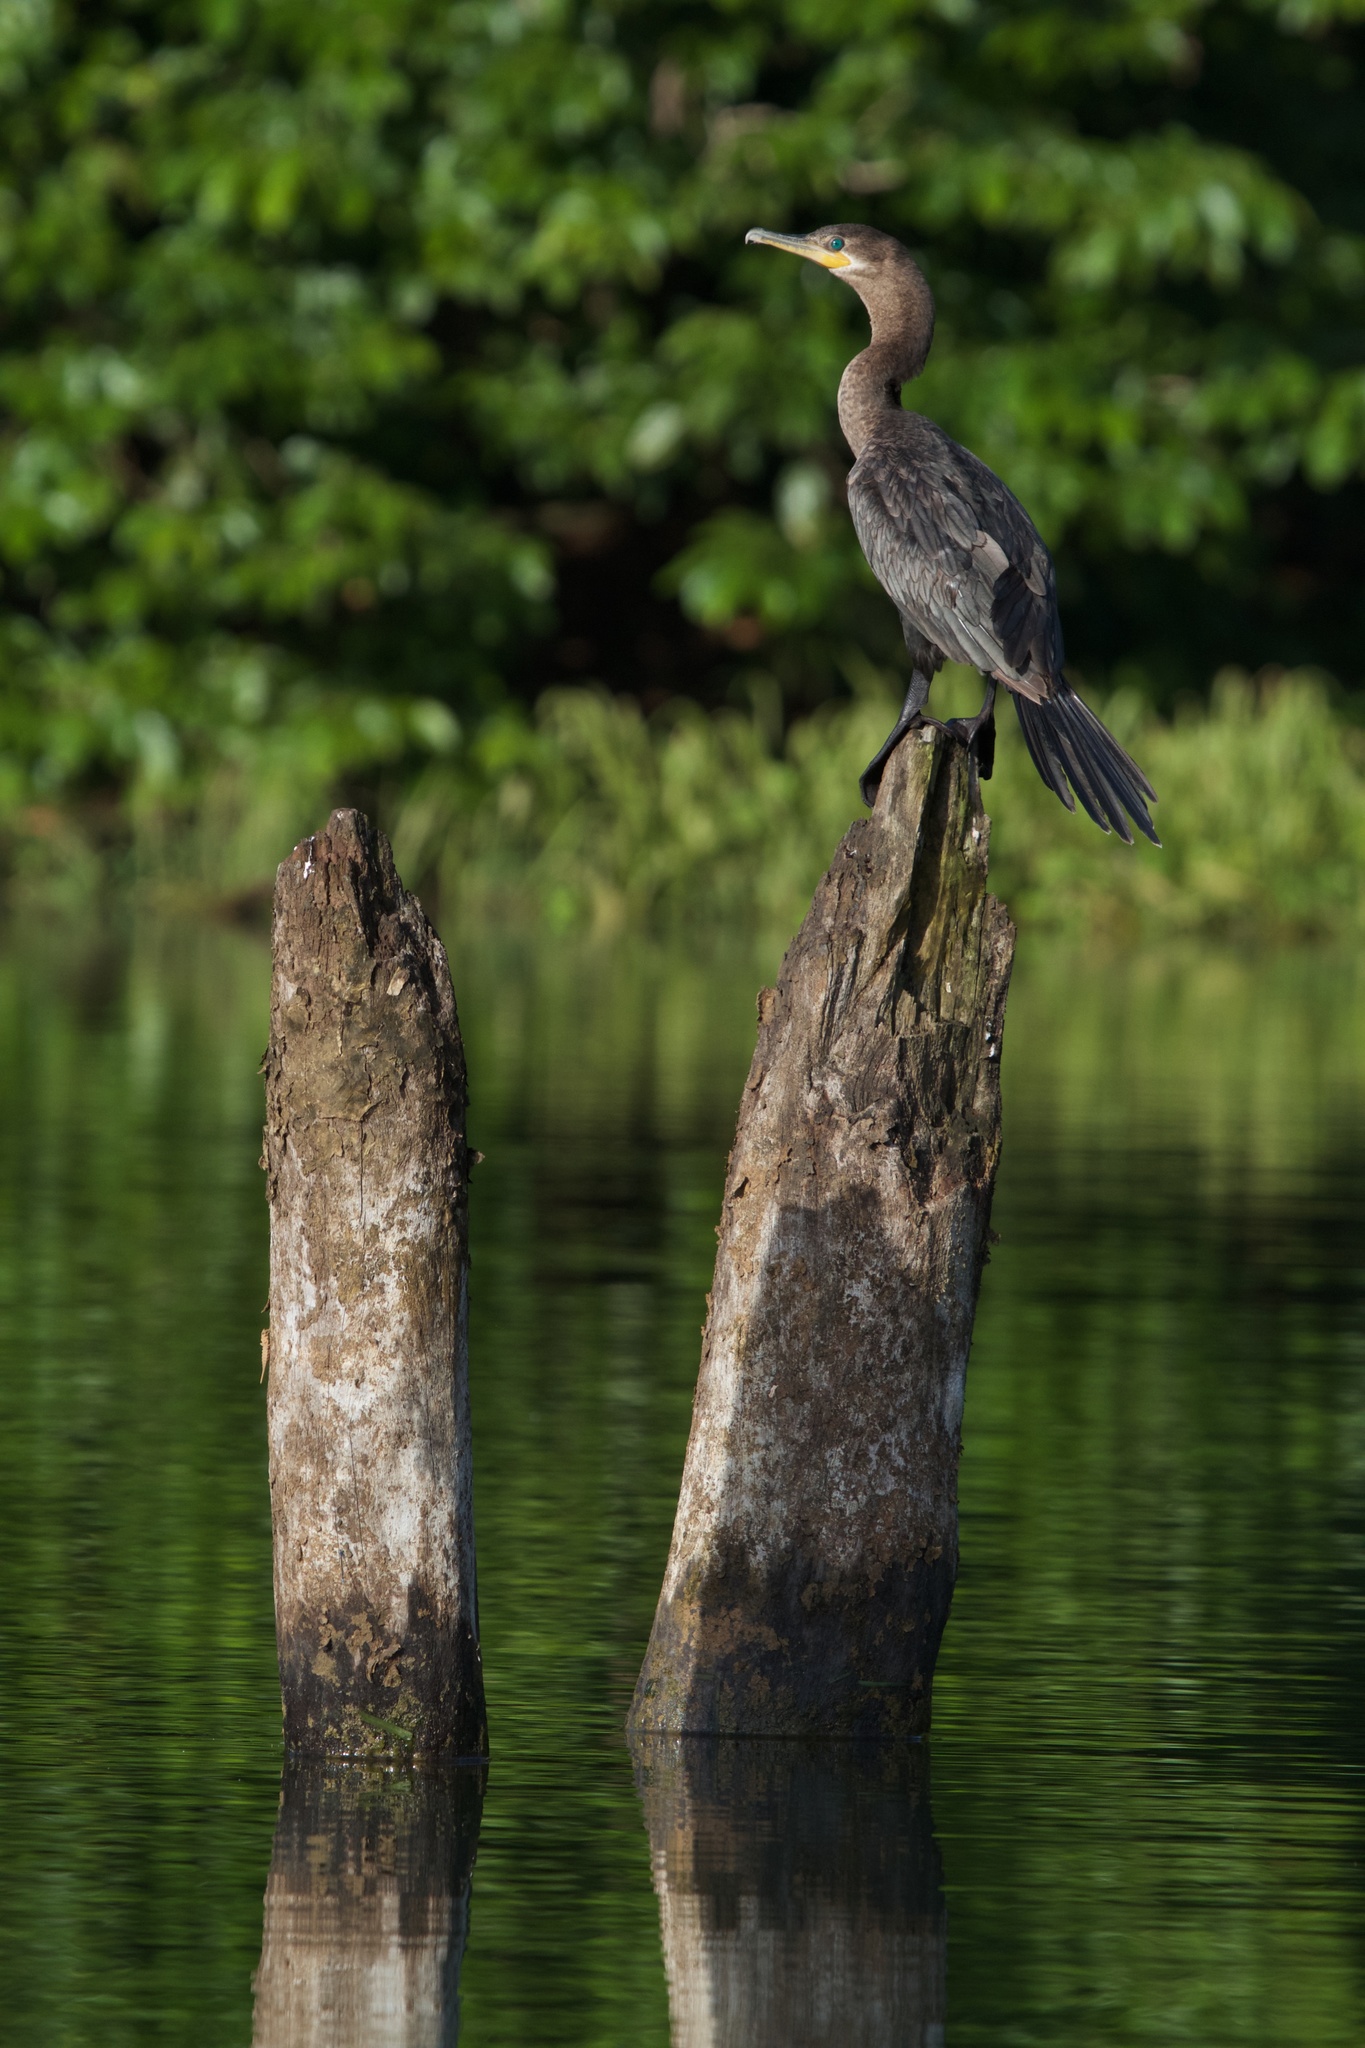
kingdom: Animalia
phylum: Chordata
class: Aves
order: Suliformes
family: Phalacrocoracidae
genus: Phalacrocorax
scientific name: Phalacrocorax brasilianus
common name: Neotropic cormorant
